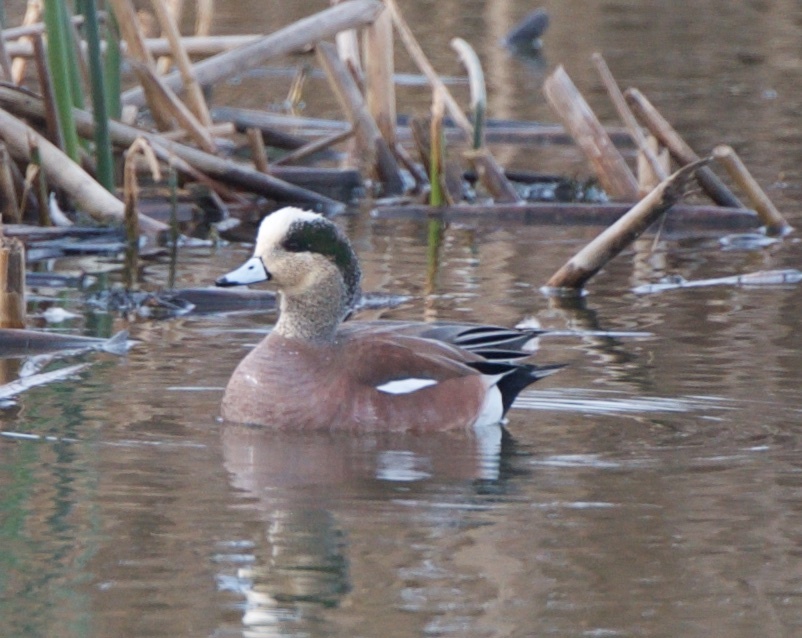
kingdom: Animalia
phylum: Chordata
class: Aves
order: Anseriformes
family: Anatidae
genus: Mareca
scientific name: Mareca americana
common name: American wigeon
